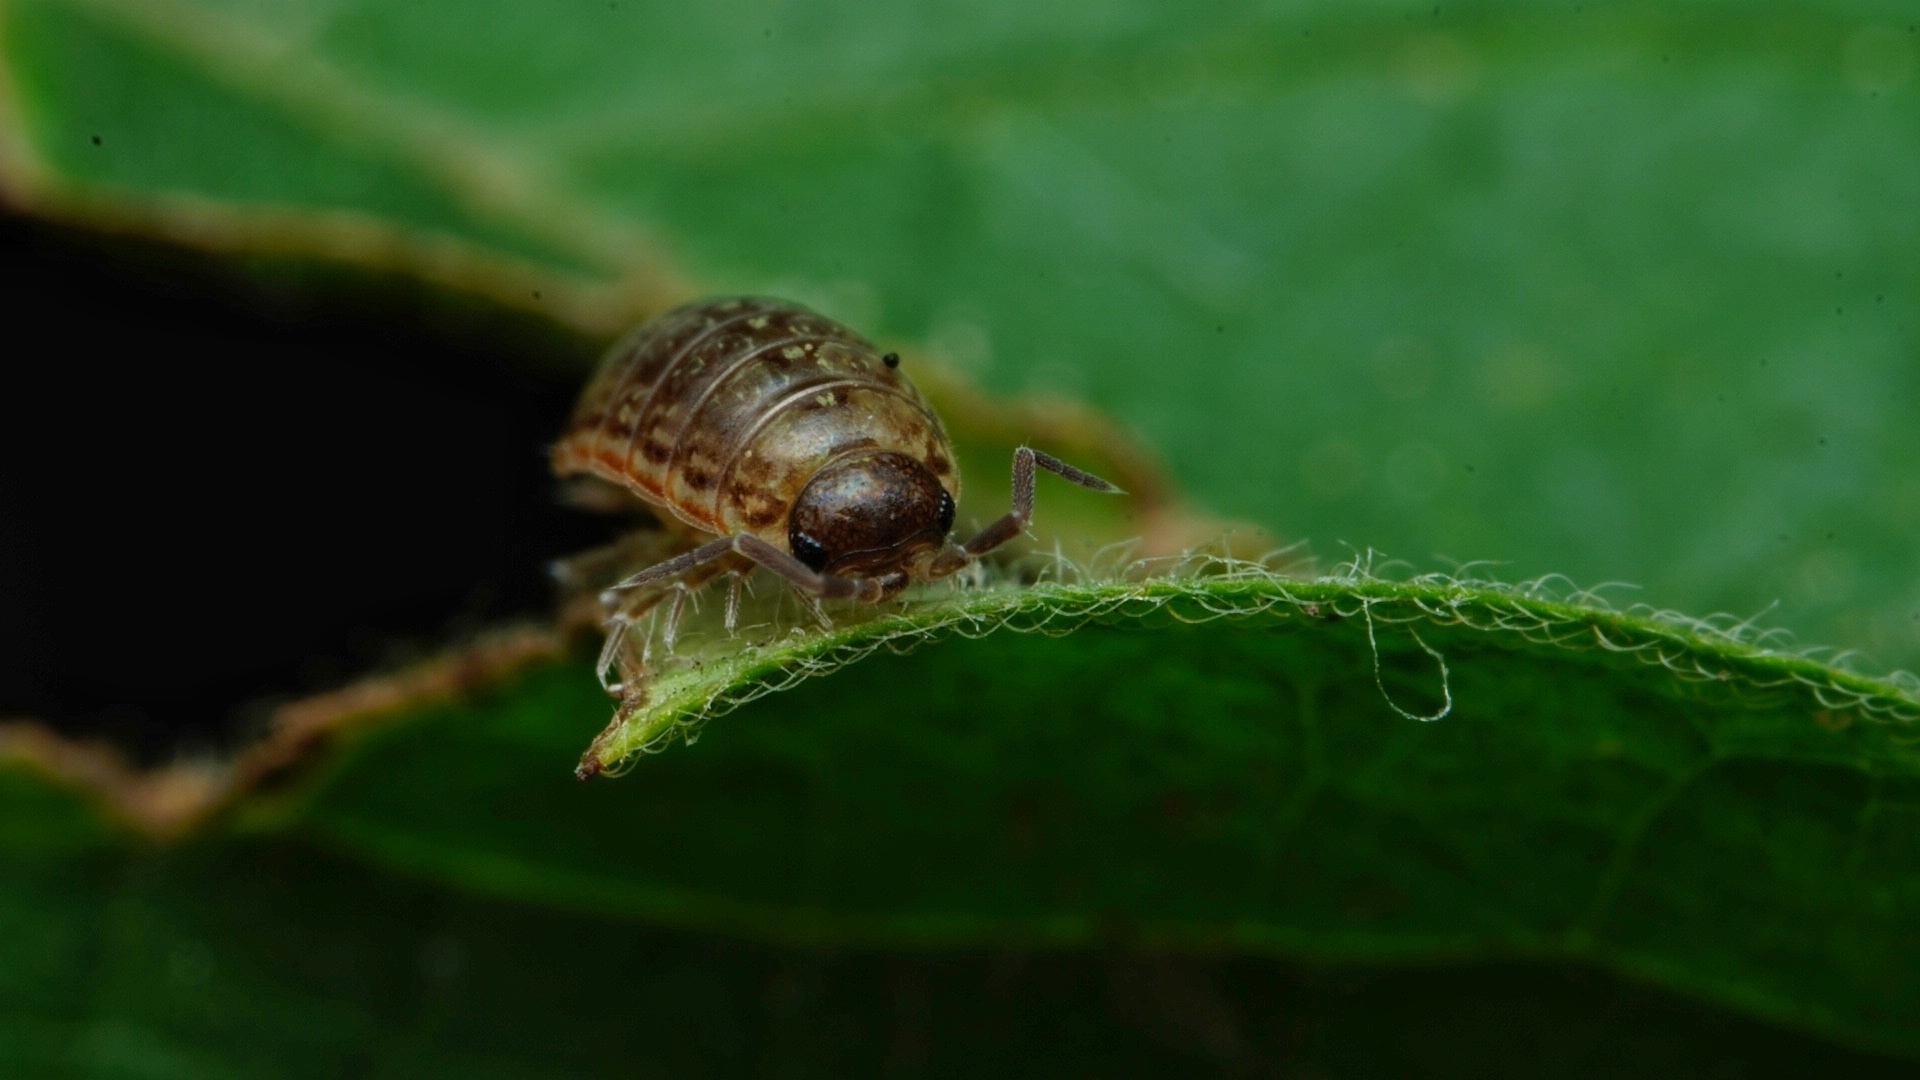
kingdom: Animalia
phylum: Arthropoda
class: Malacostraca
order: Isopoda
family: Philosciidae
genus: Philoscia
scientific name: Philoscia muscorum
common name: Common striped woodlouse
